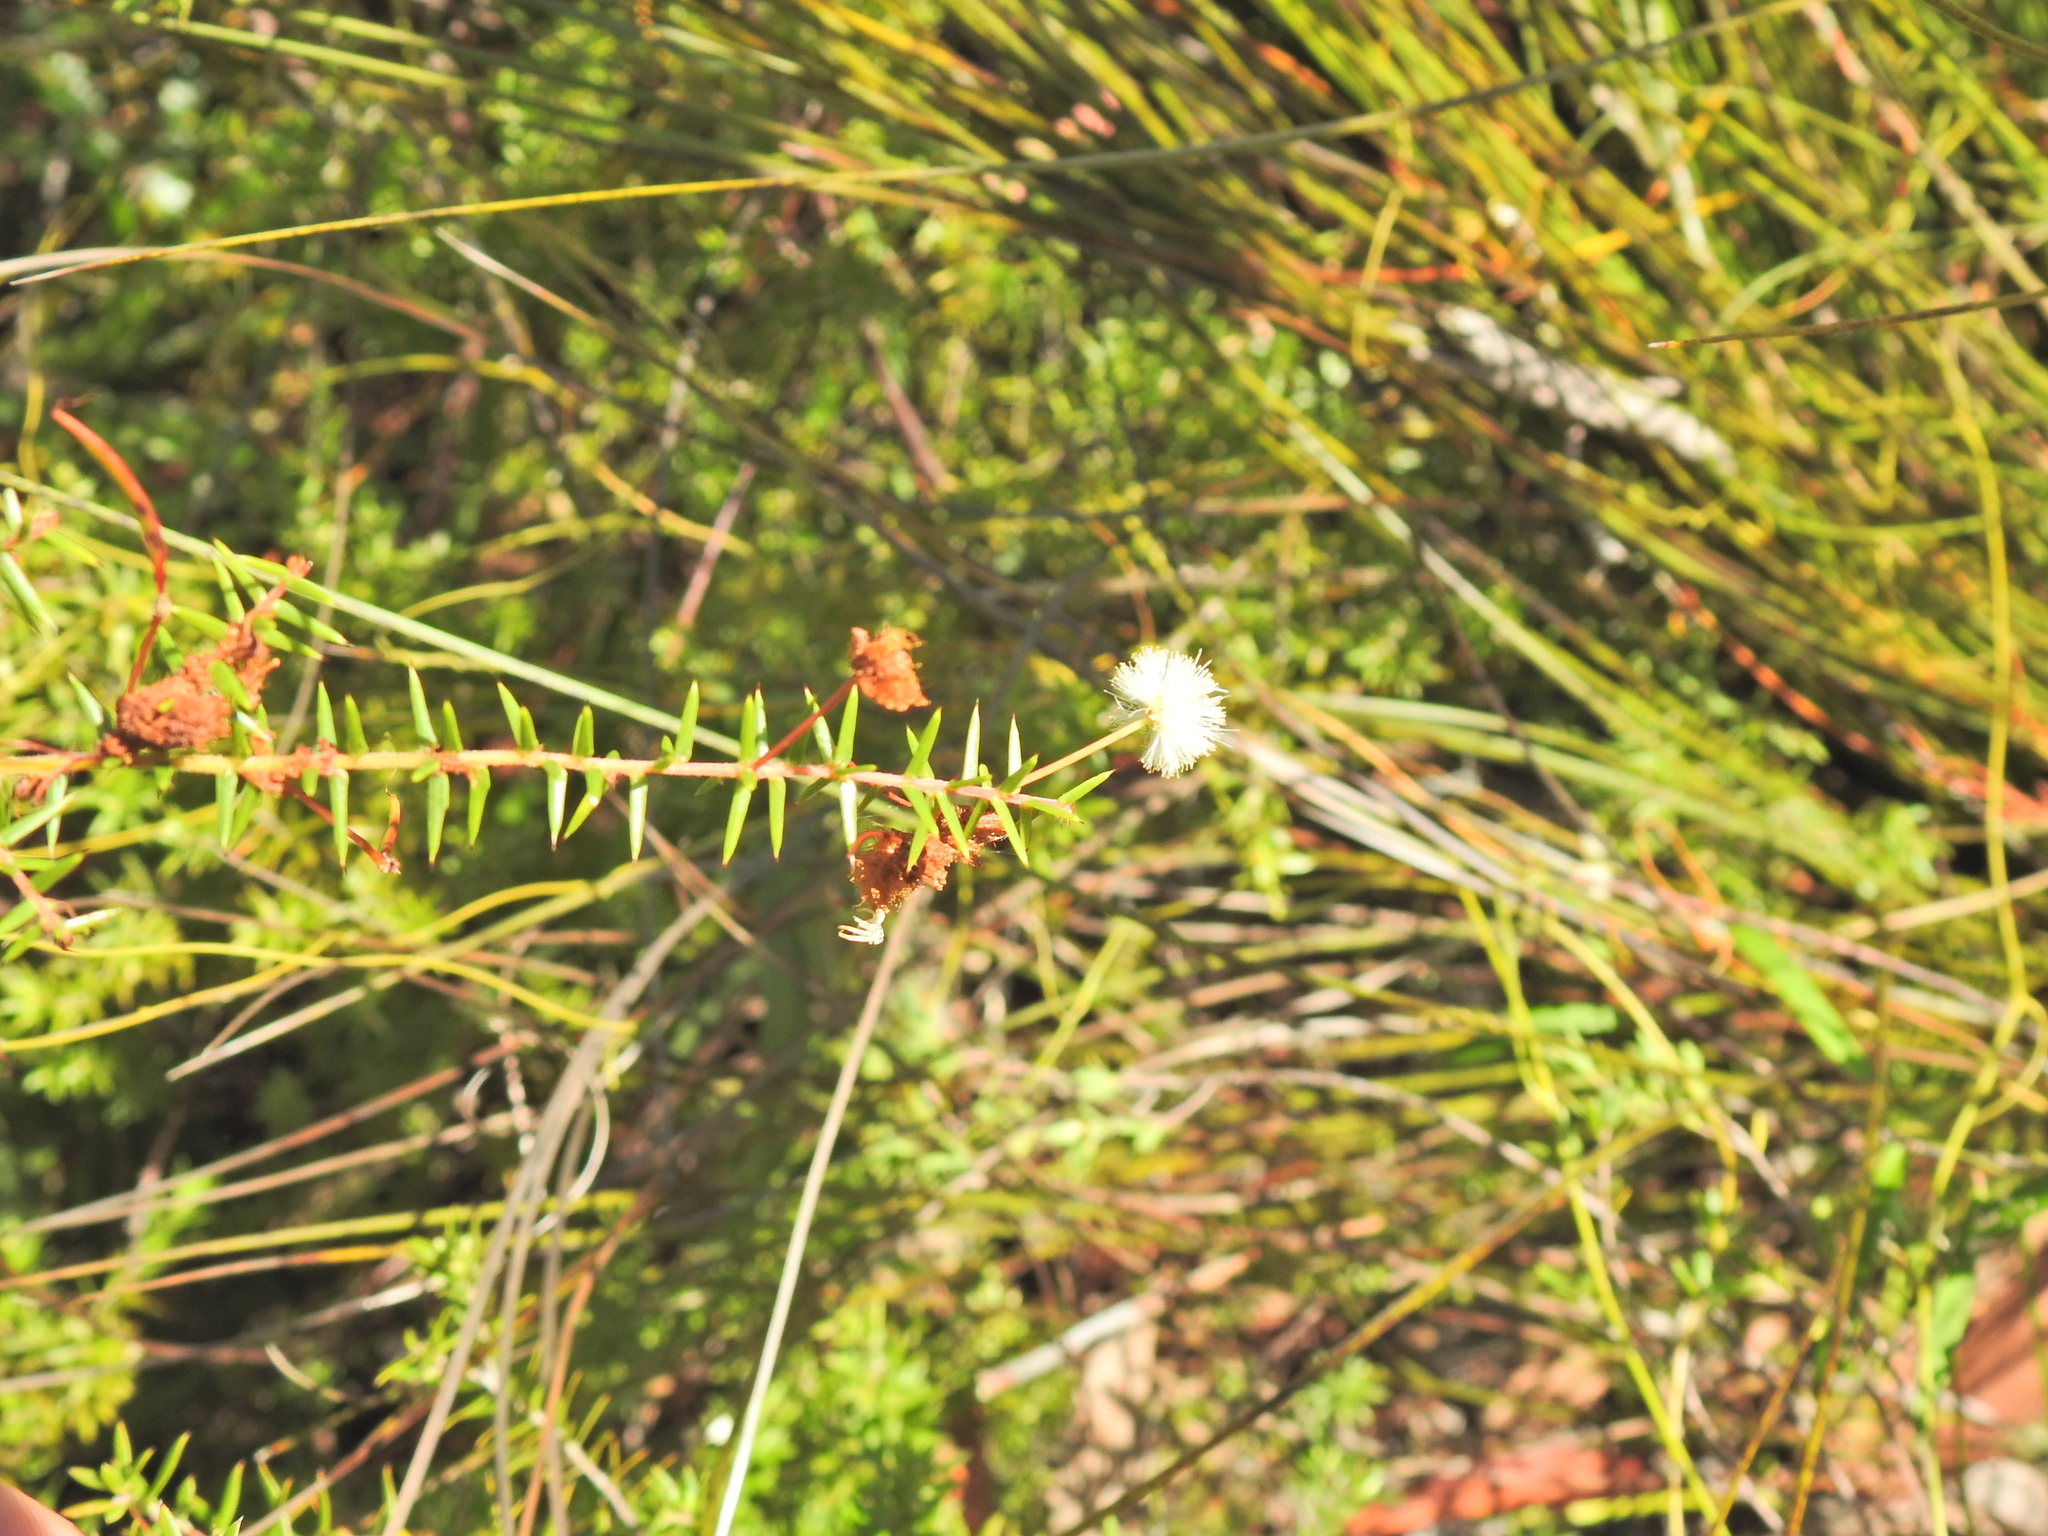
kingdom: Plantae
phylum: Tracheophyta
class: Magnoliopsida
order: Fabales
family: Fabaceae
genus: Acacia
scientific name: Acacia ulicifolia
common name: Juniper wattle
